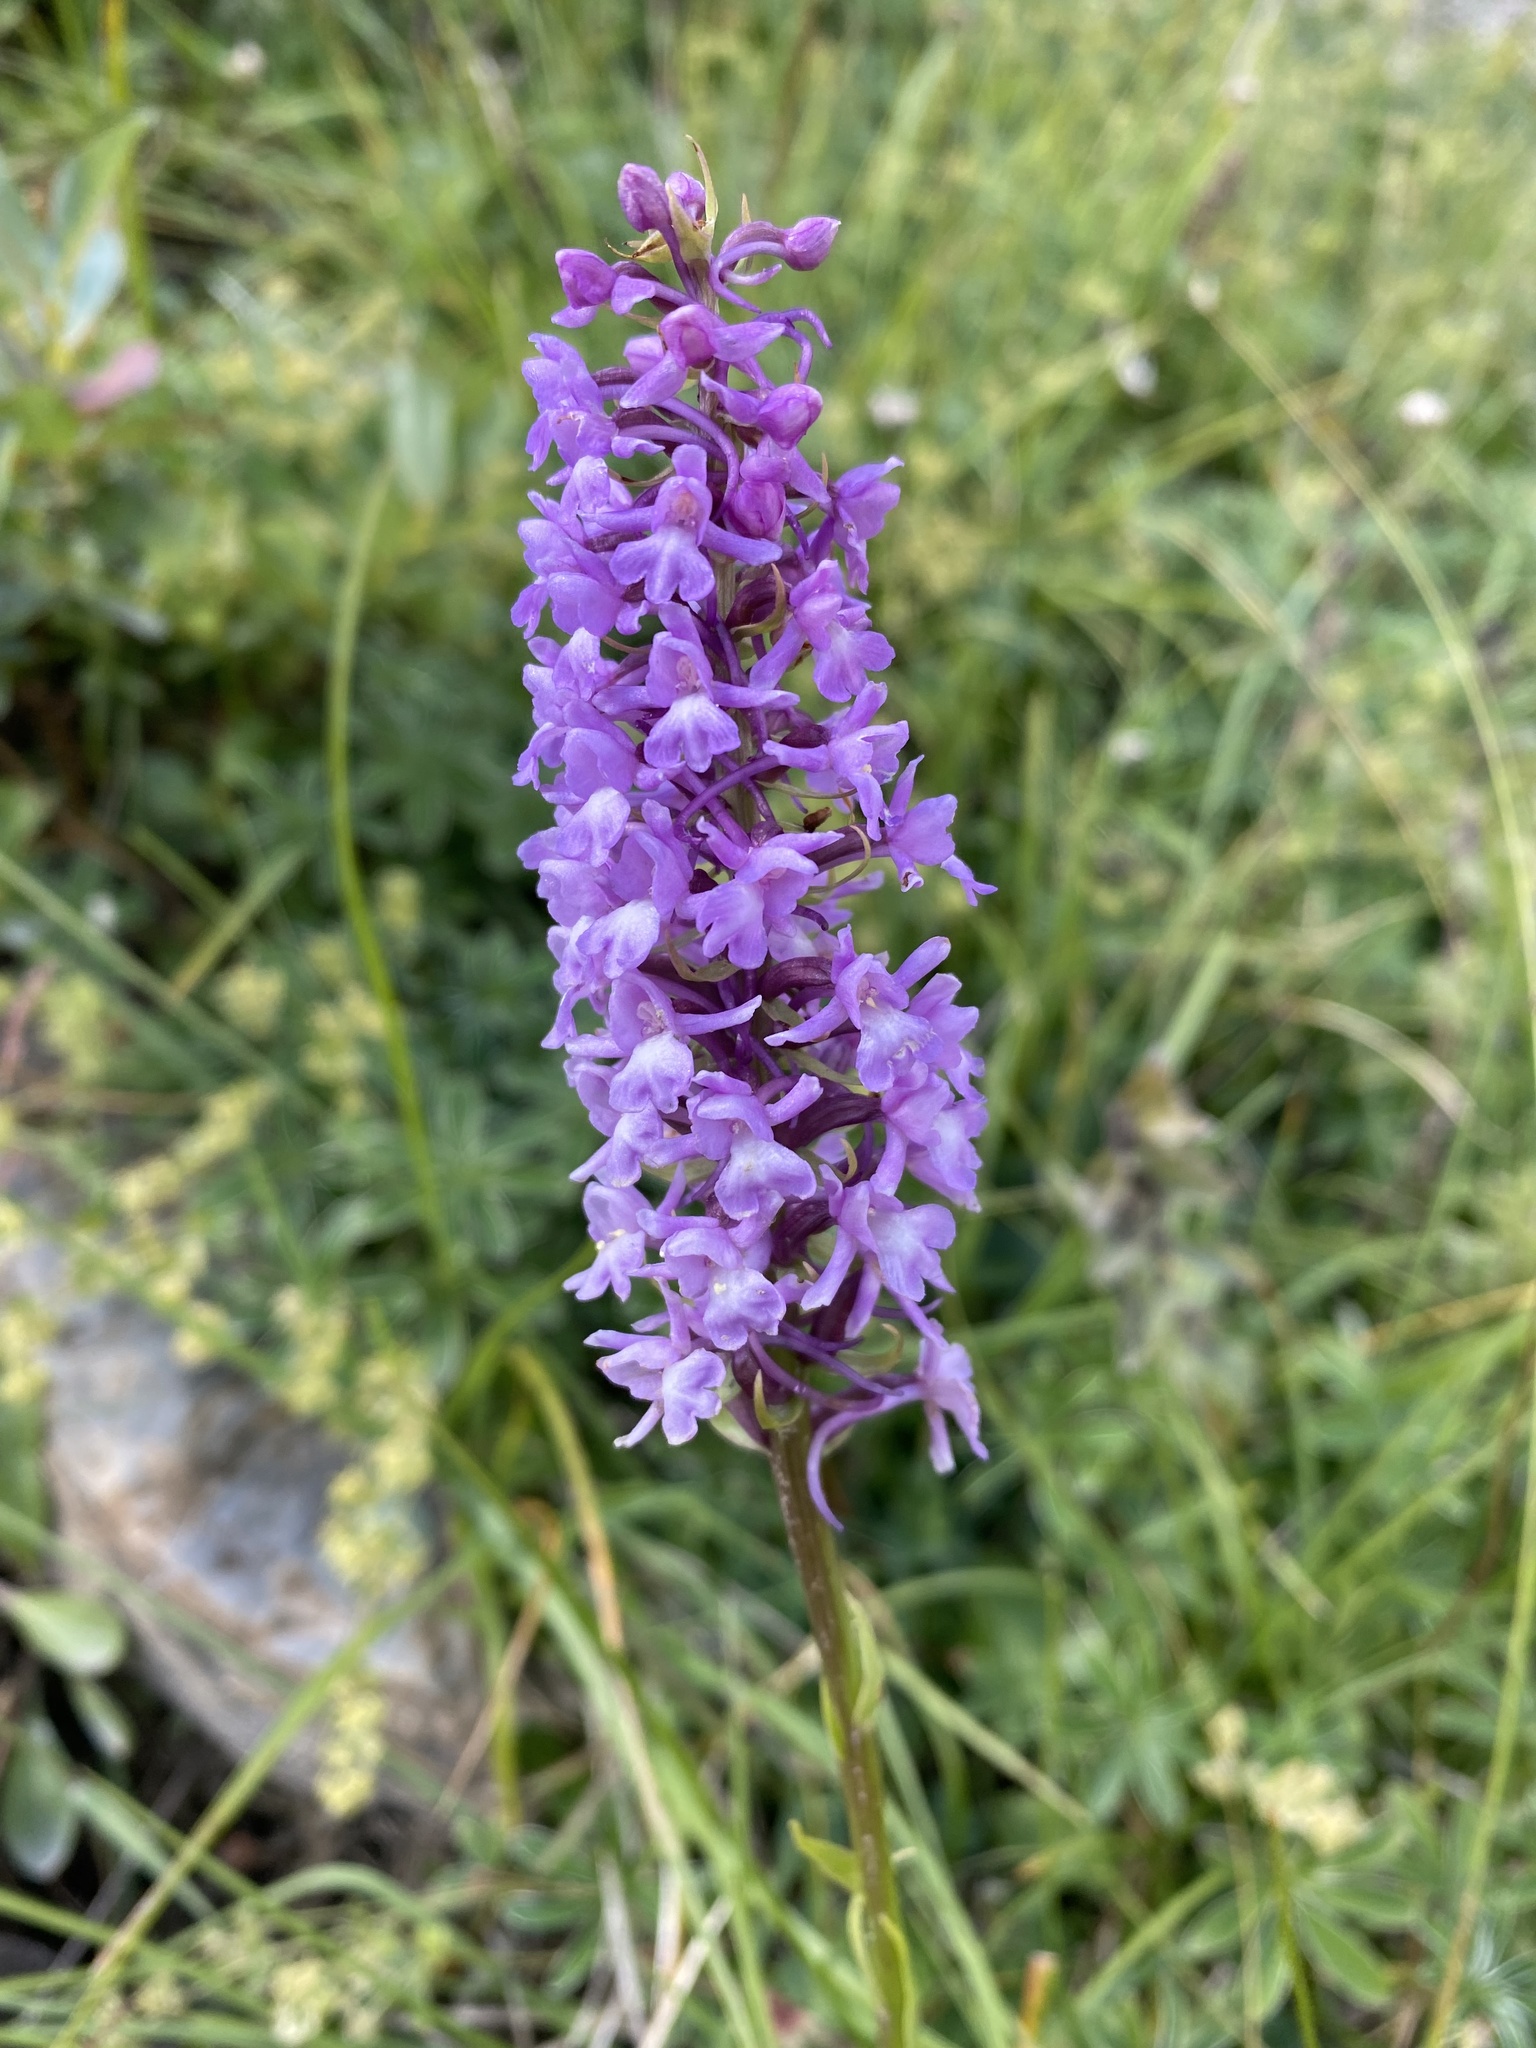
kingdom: Plantae
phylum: Tracheophyta
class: Liliopsida
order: Asparagales
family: Orchidaceae
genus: Gymnadenia
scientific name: Gymnadenia conopsea
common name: Fragrant orchid
